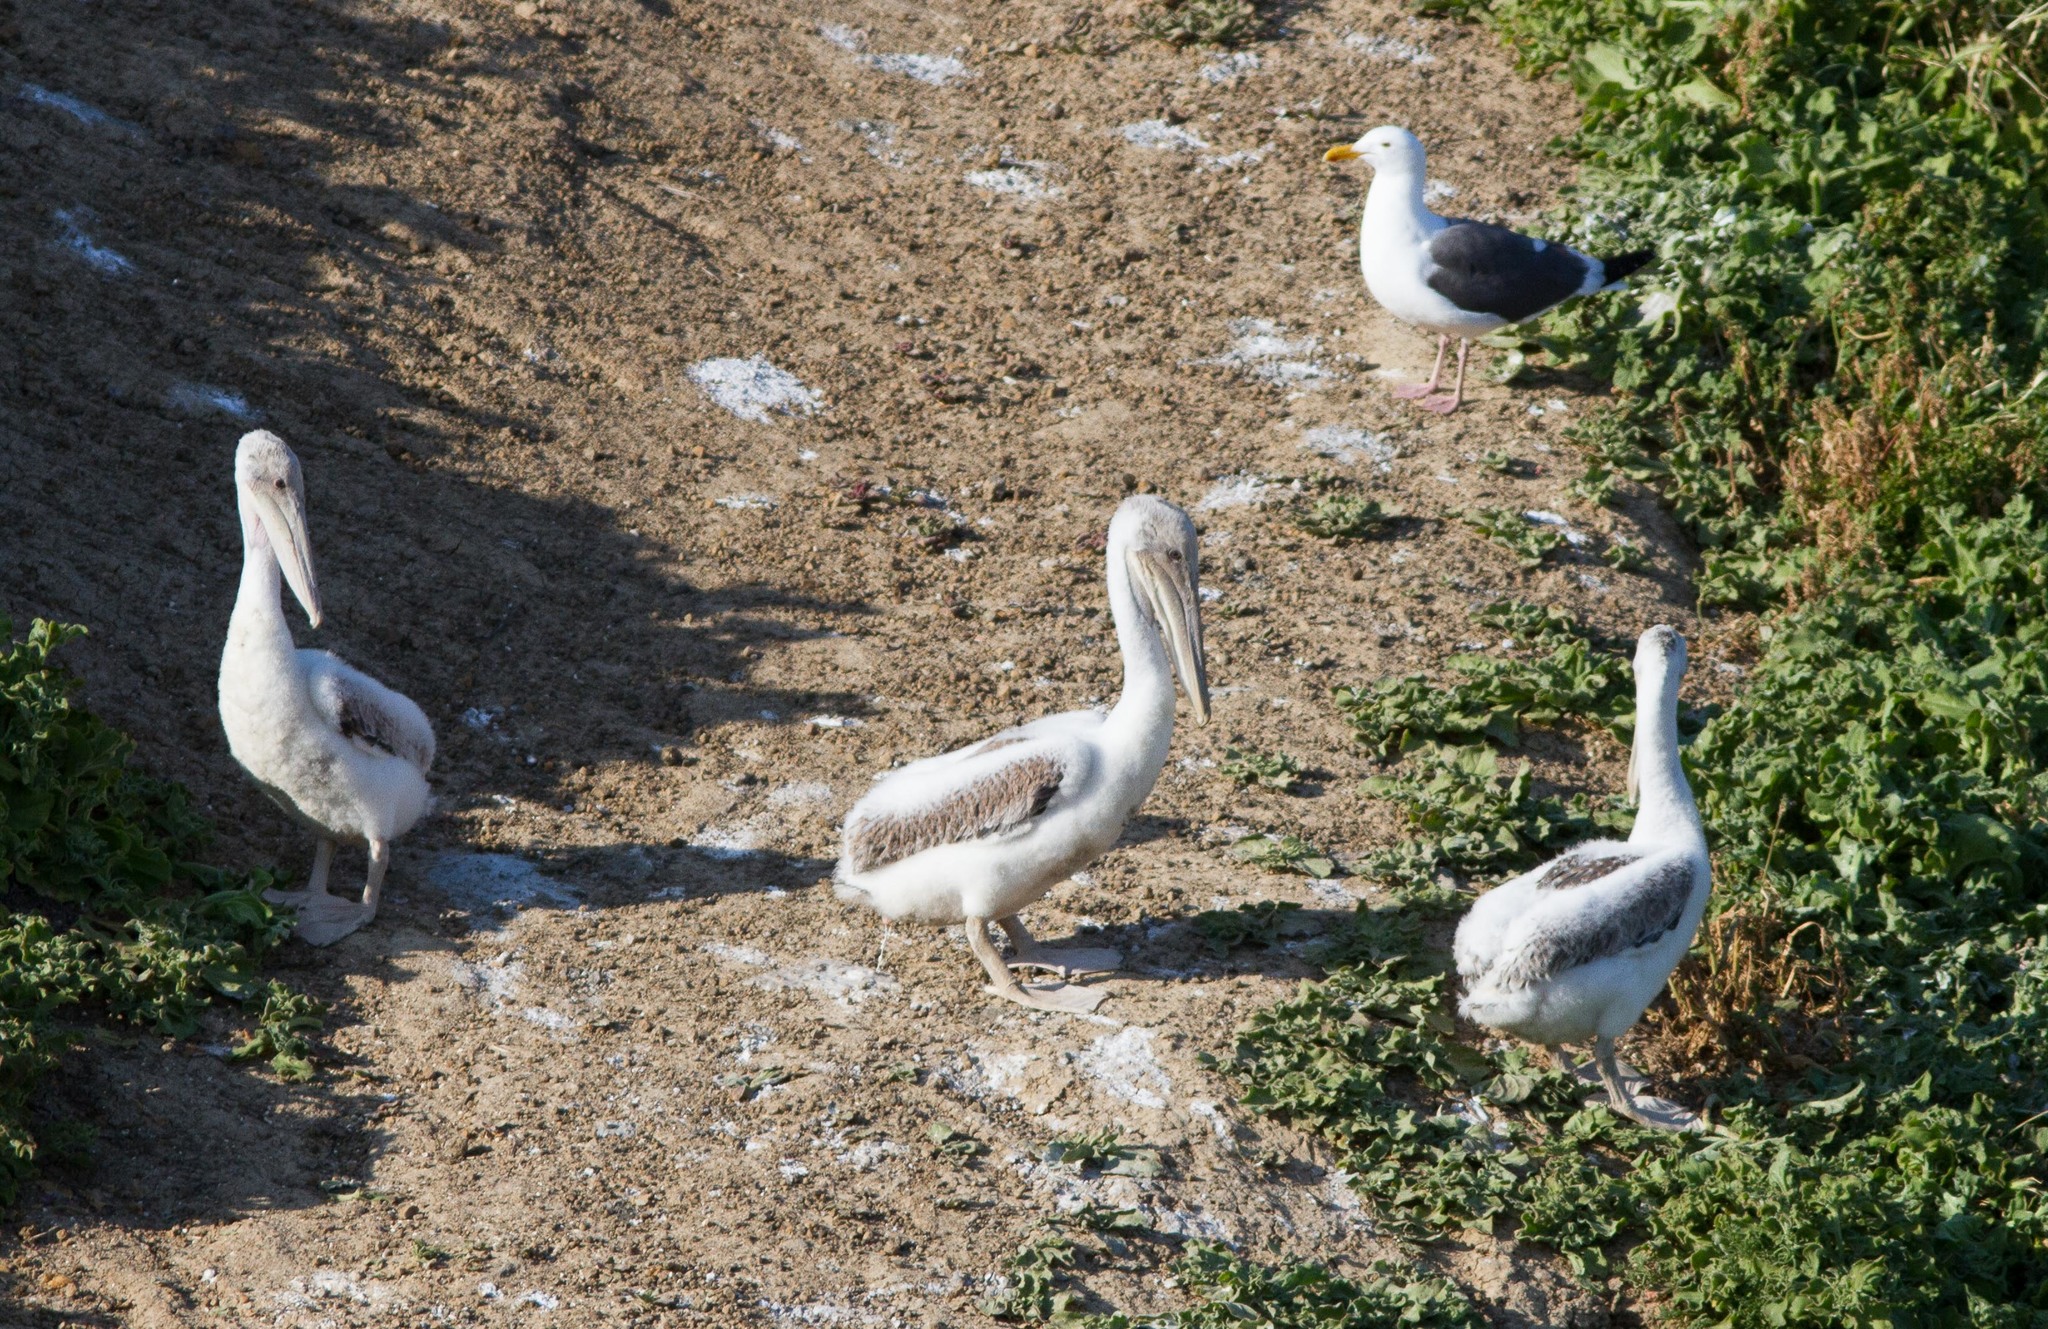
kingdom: Animalia
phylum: Chordata
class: Aves
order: Pelecaniformes
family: Pelecanidae
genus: Pelecanus
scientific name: Pelecanus occidentalis
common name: Brown pelican
